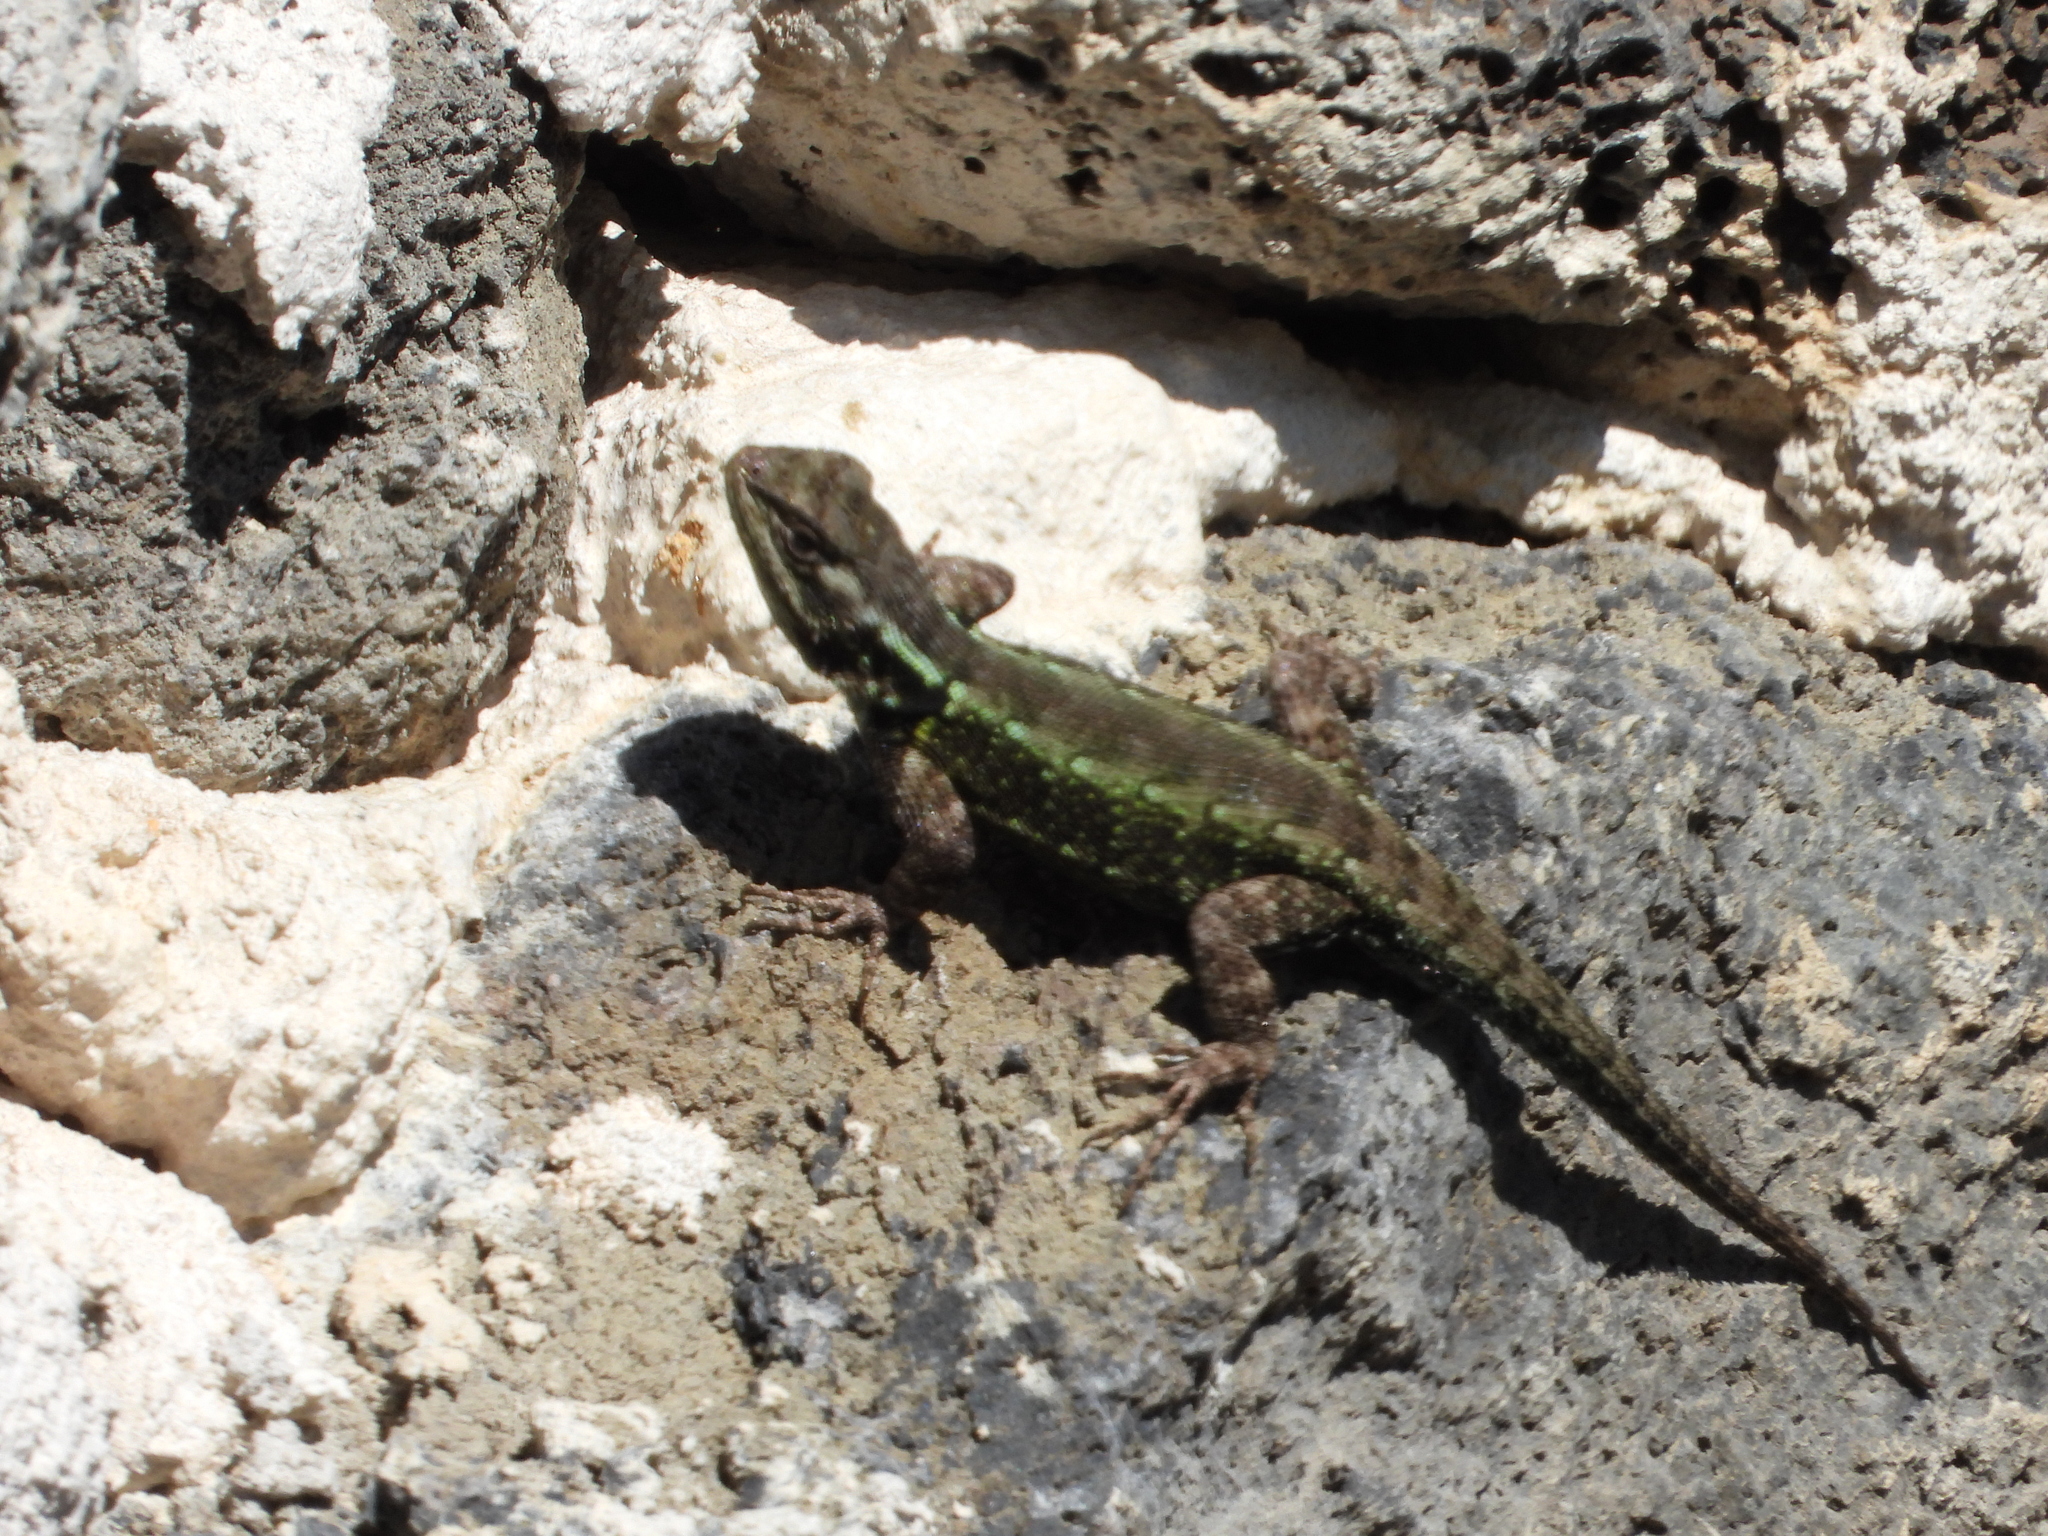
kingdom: Animalia
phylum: Chordata
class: Squamata
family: Phrynosomatidae
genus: Sceloporus
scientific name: Sceloporus grammicus
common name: Mesquite lizard
